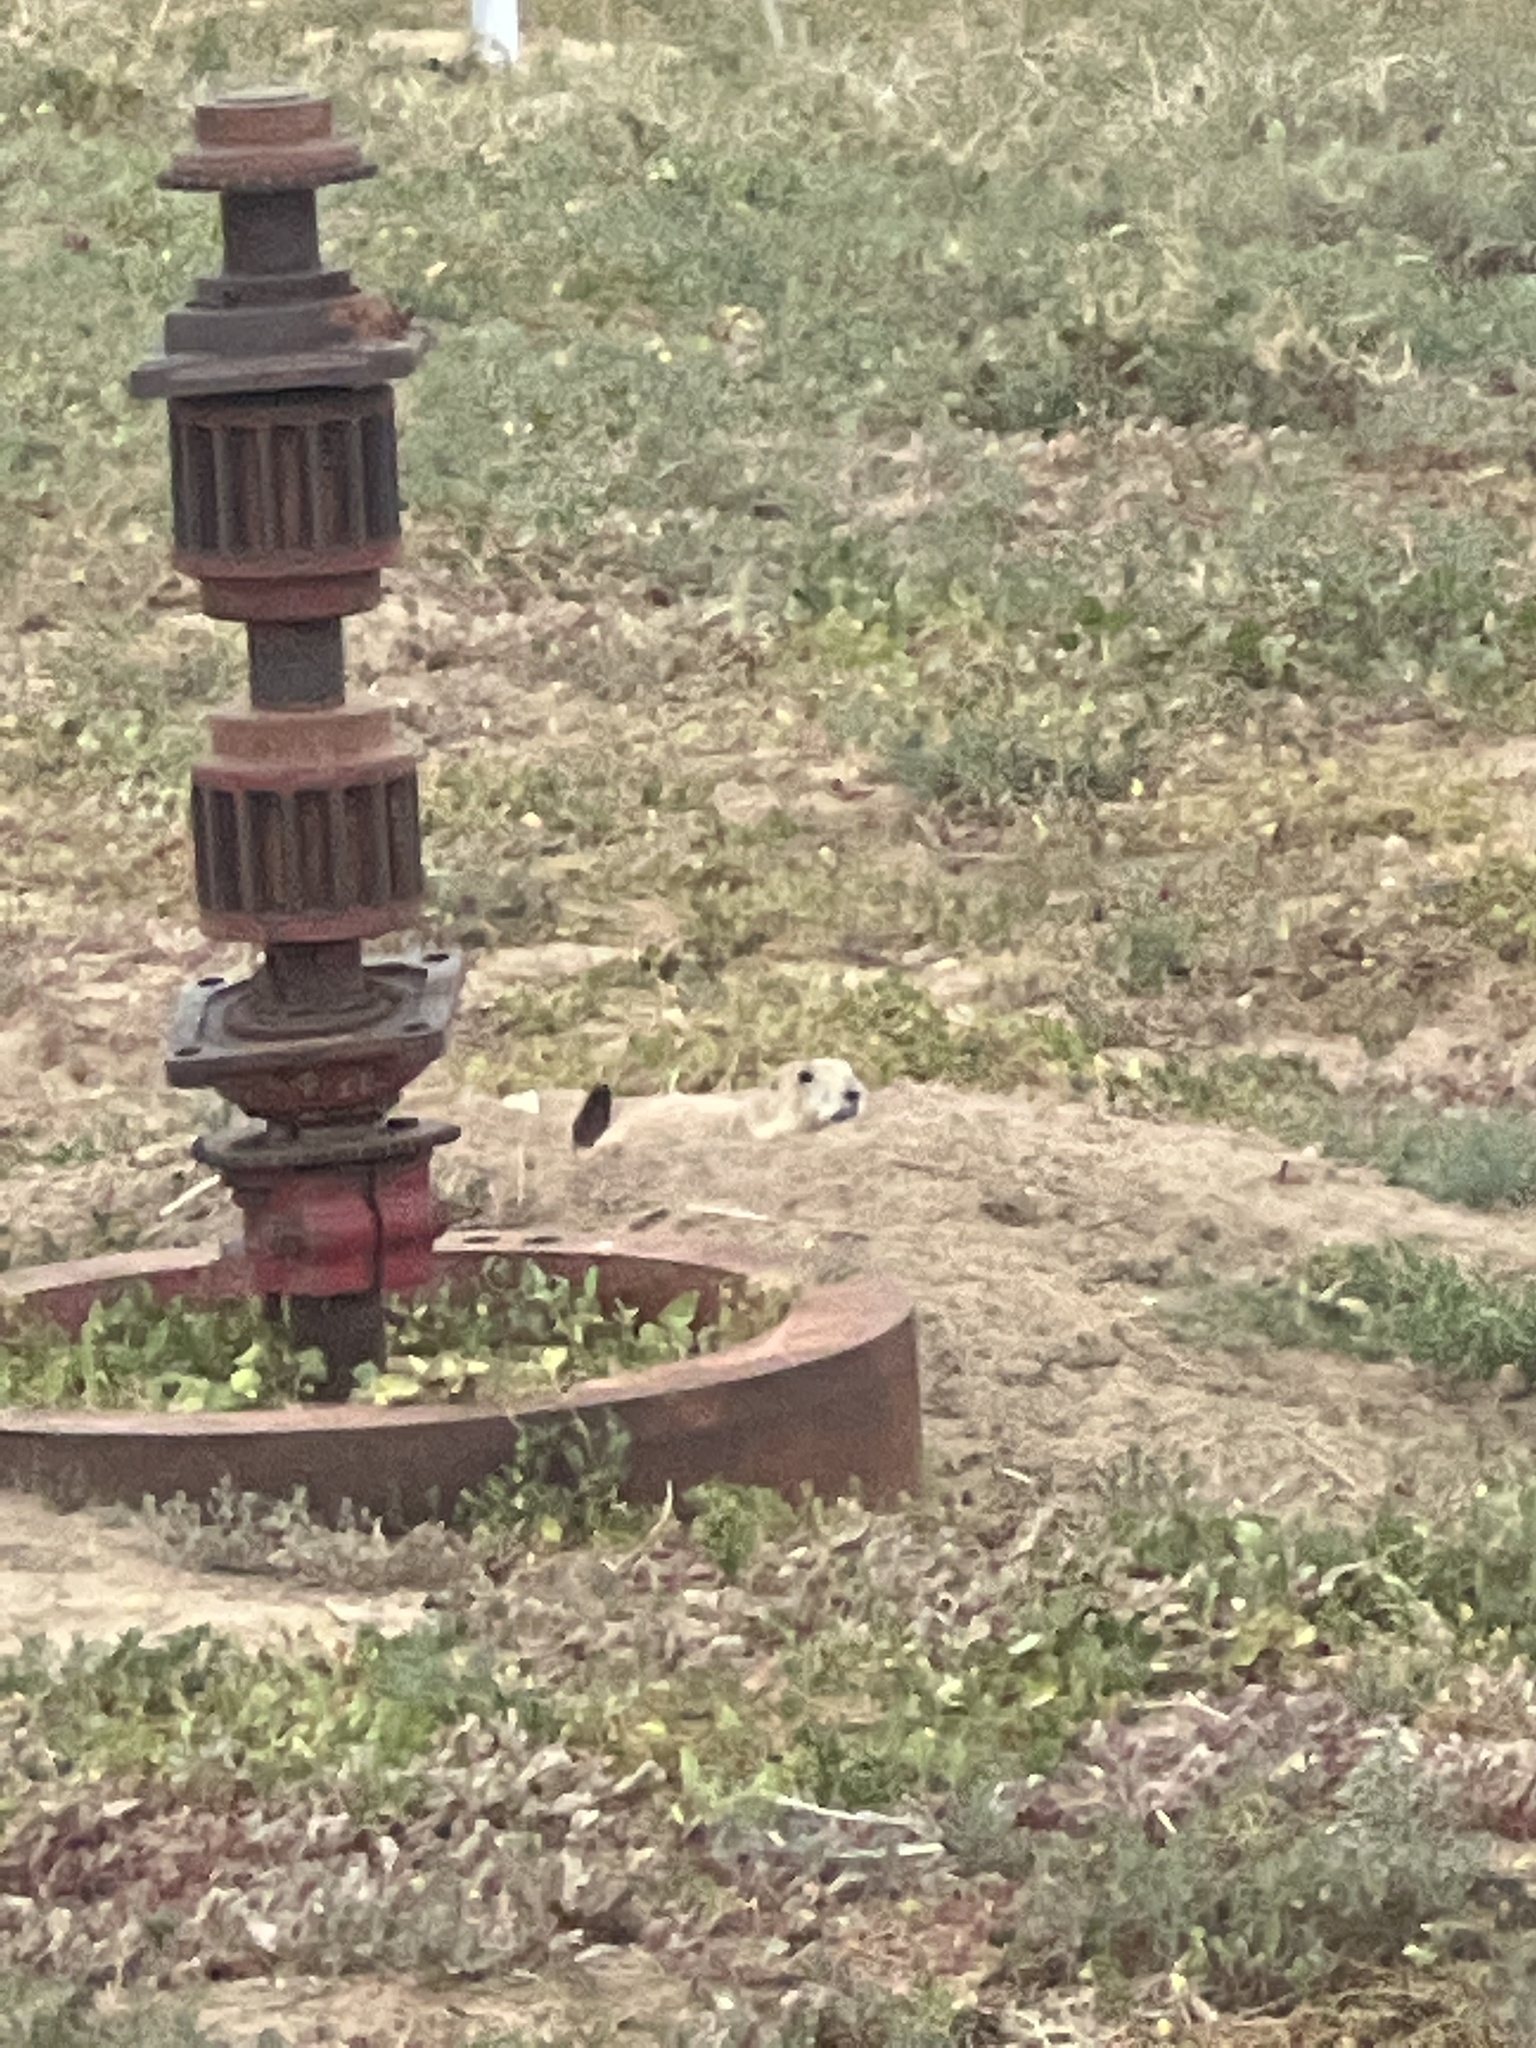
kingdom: Animalia
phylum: Chordata
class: Mammalia
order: Rodentia
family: Sciuridae
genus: Cynomys
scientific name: Cynomys ludovicianus
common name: Black-tailed prairie dog
